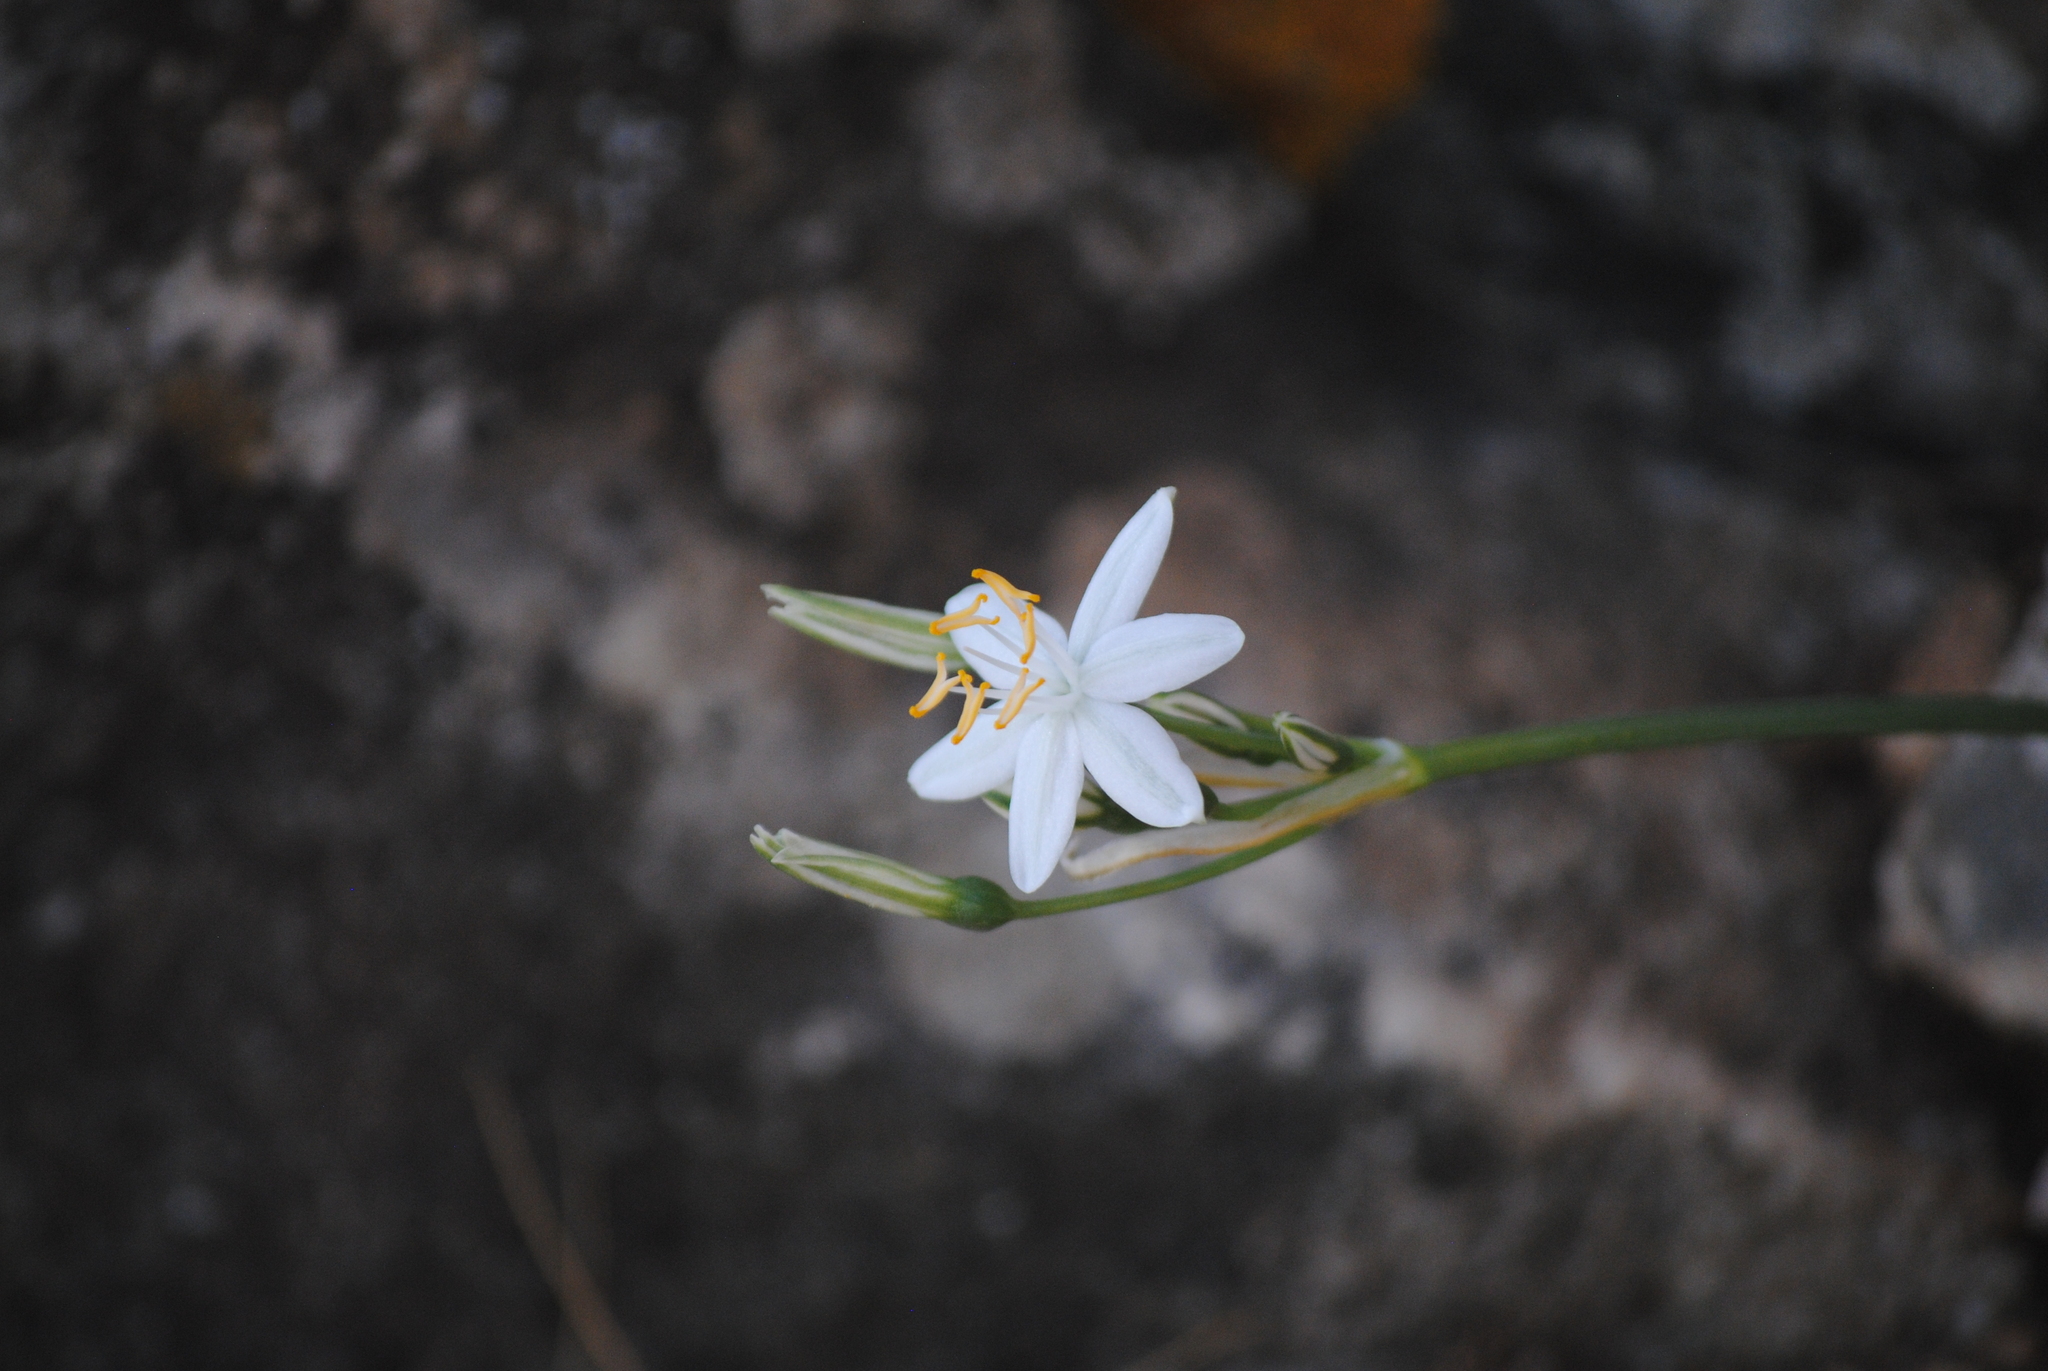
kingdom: Plantae
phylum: Tracheophyta
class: Liliopsida
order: Asparagales
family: Amaryllidaceae
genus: Lapiedra
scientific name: Lapiedra martinezii
